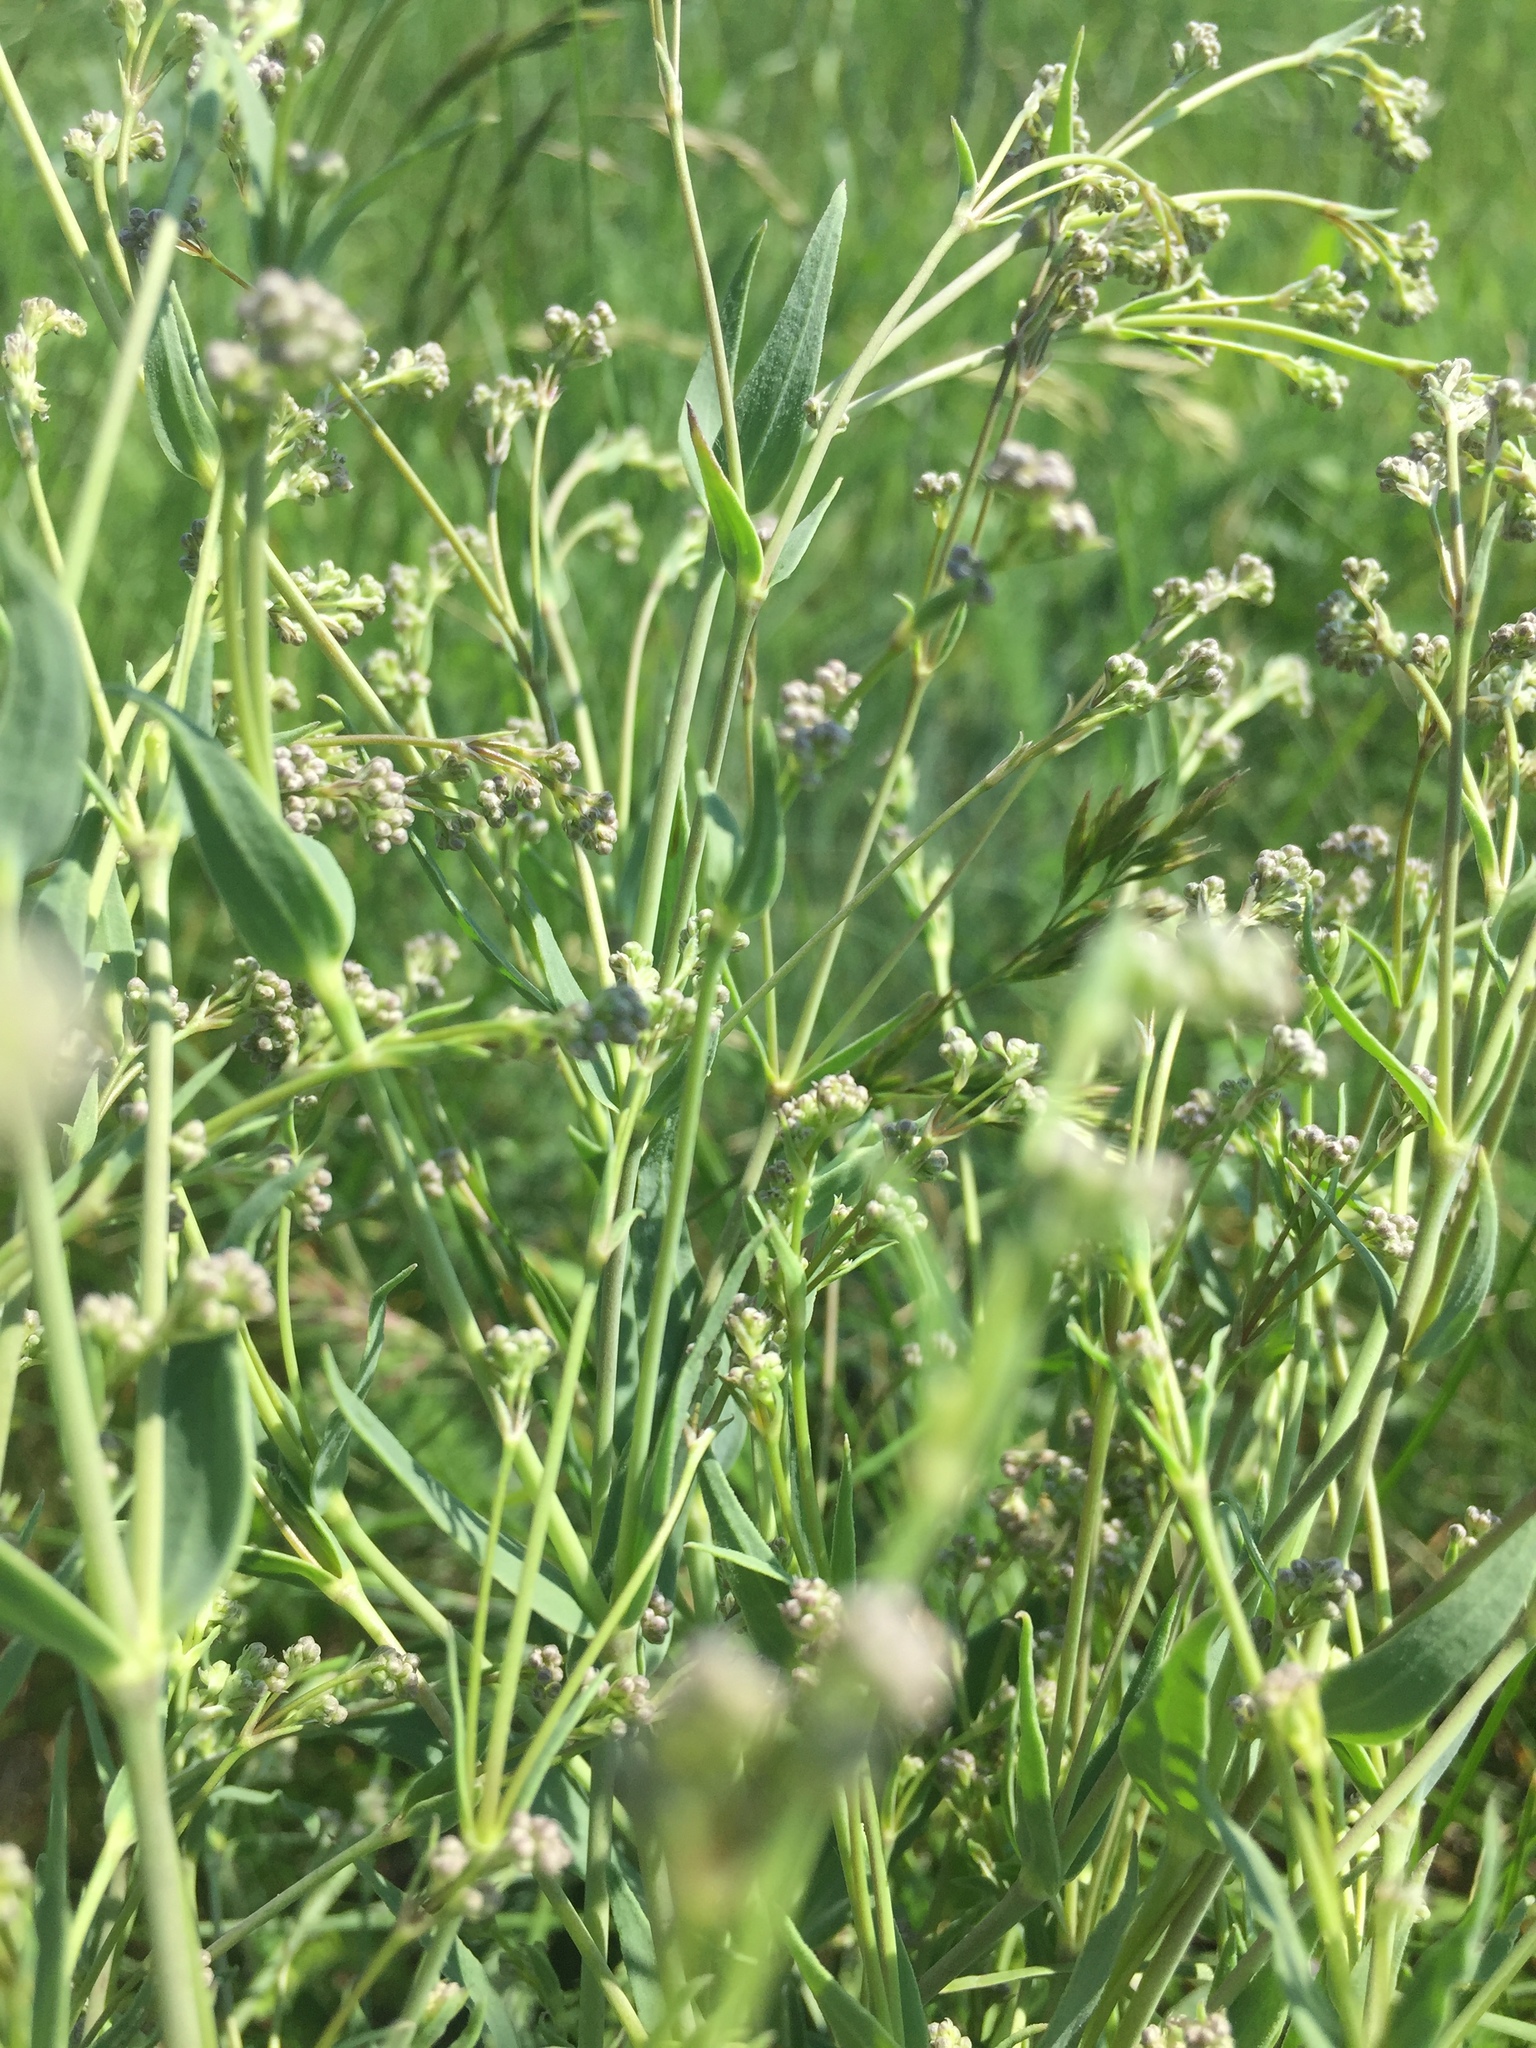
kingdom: Plantae
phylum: Tracheophyta
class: Magnoliopsida
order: Caryophyllales
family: Caryophyllaceae
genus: Gypsophila
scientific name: Gypsophila paniculata
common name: Baby's-breath
